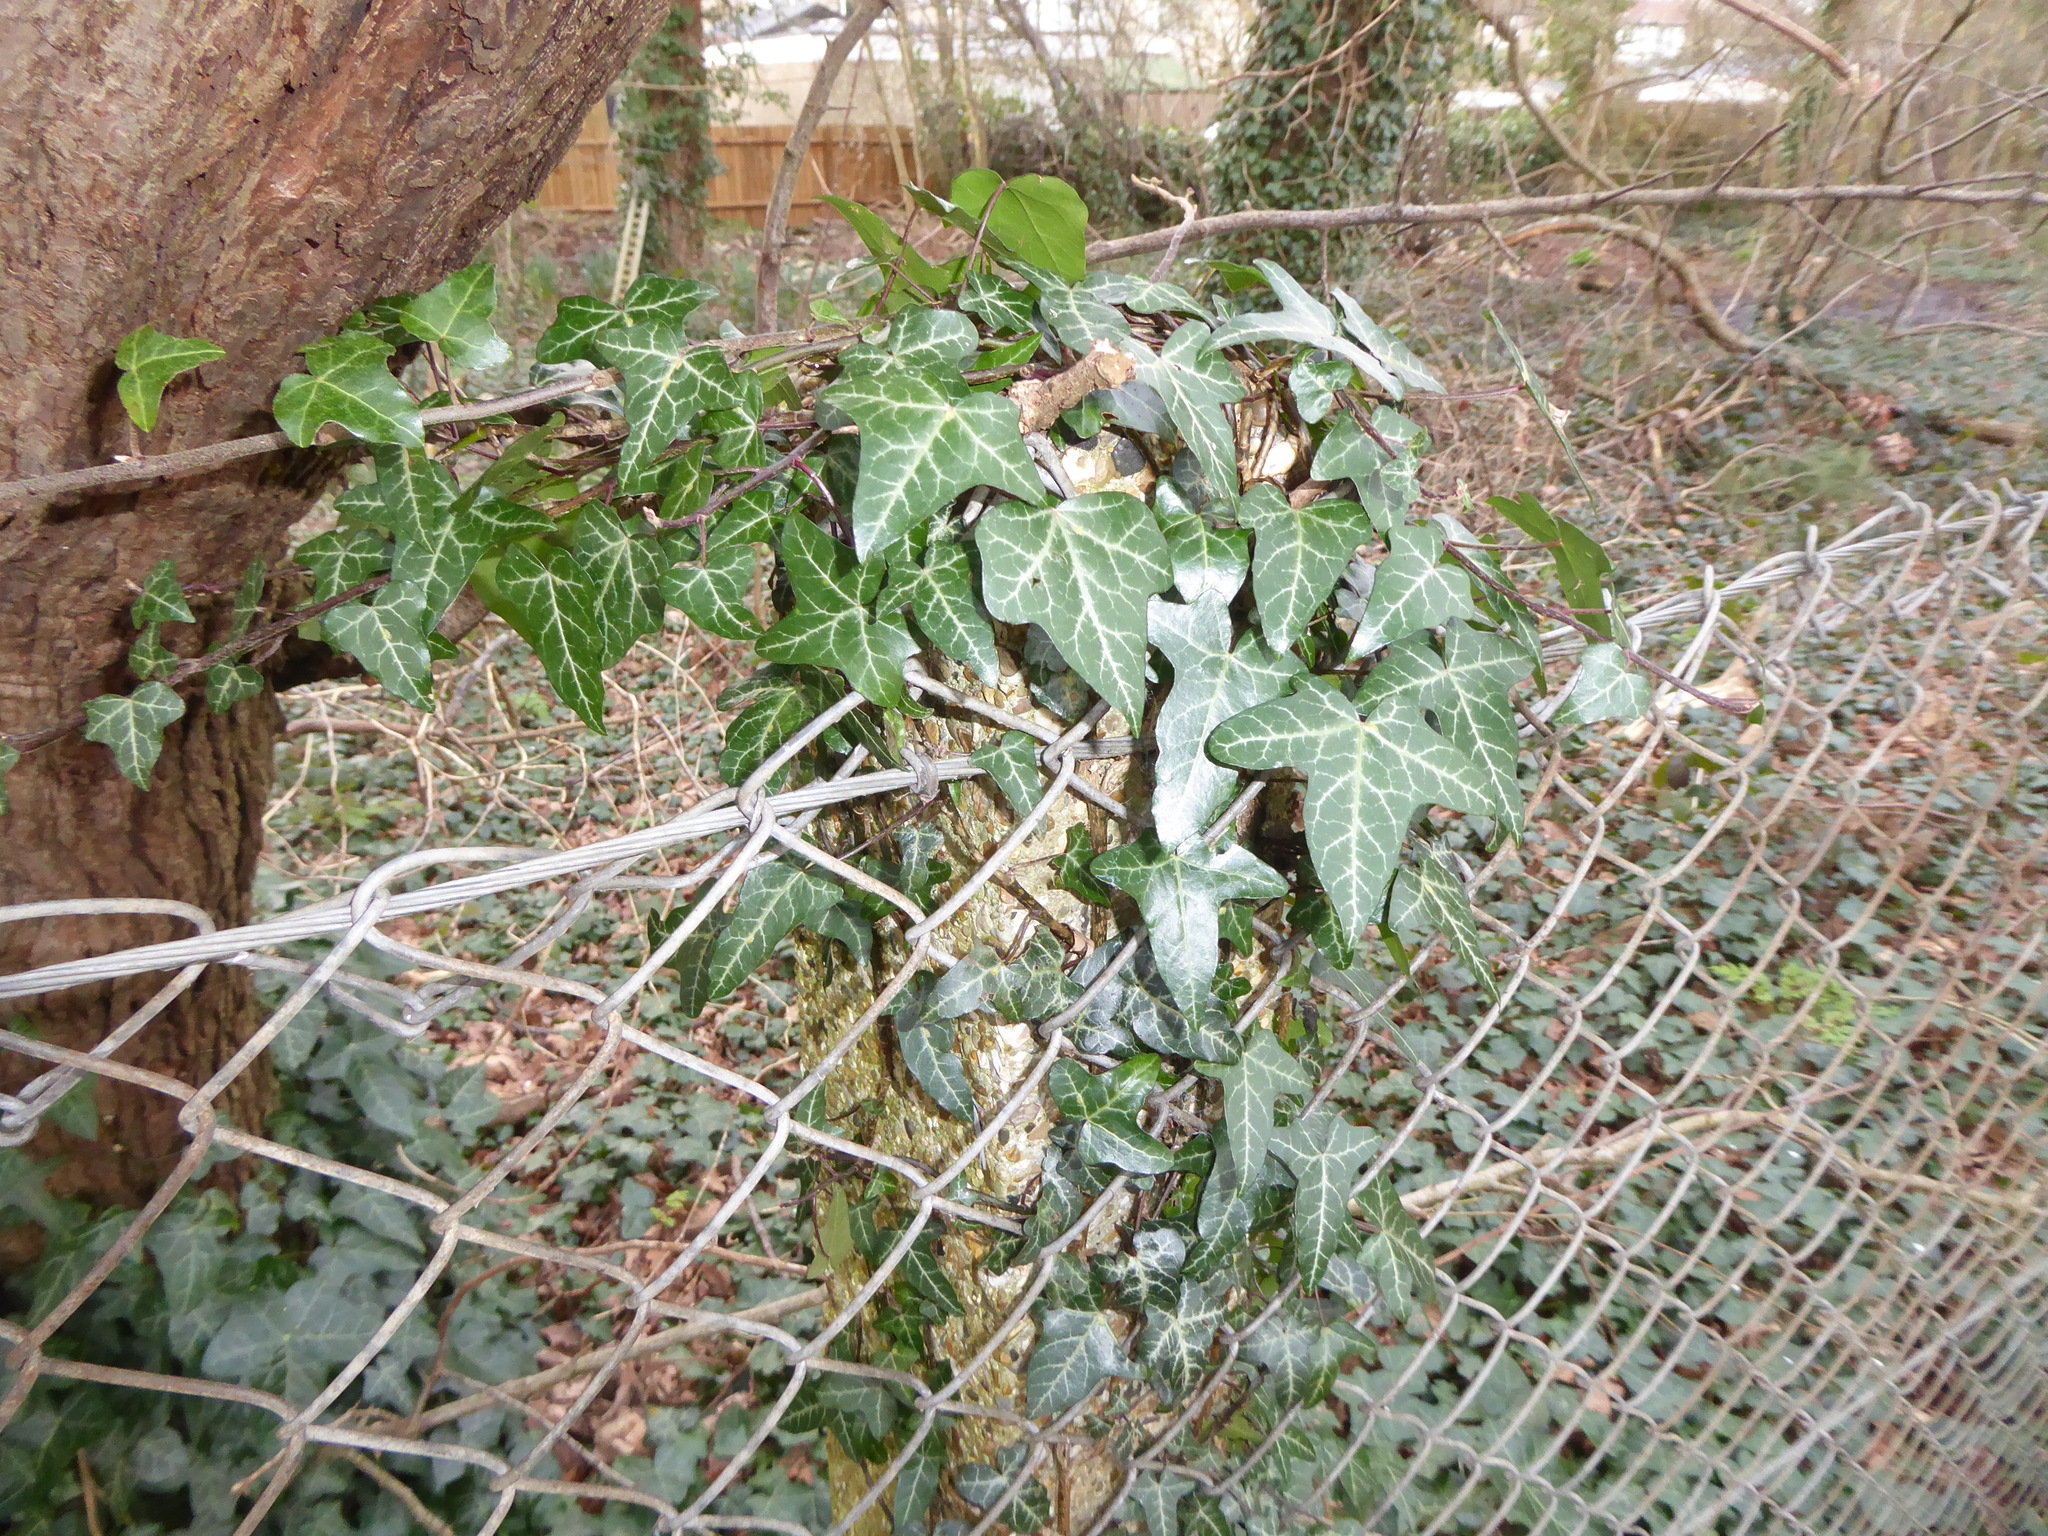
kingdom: Plantae
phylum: Tracheophyta
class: Magnoliopsida
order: Apiales
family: Araliaceae
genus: Hedera
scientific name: Hedera helix
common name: Ivy
